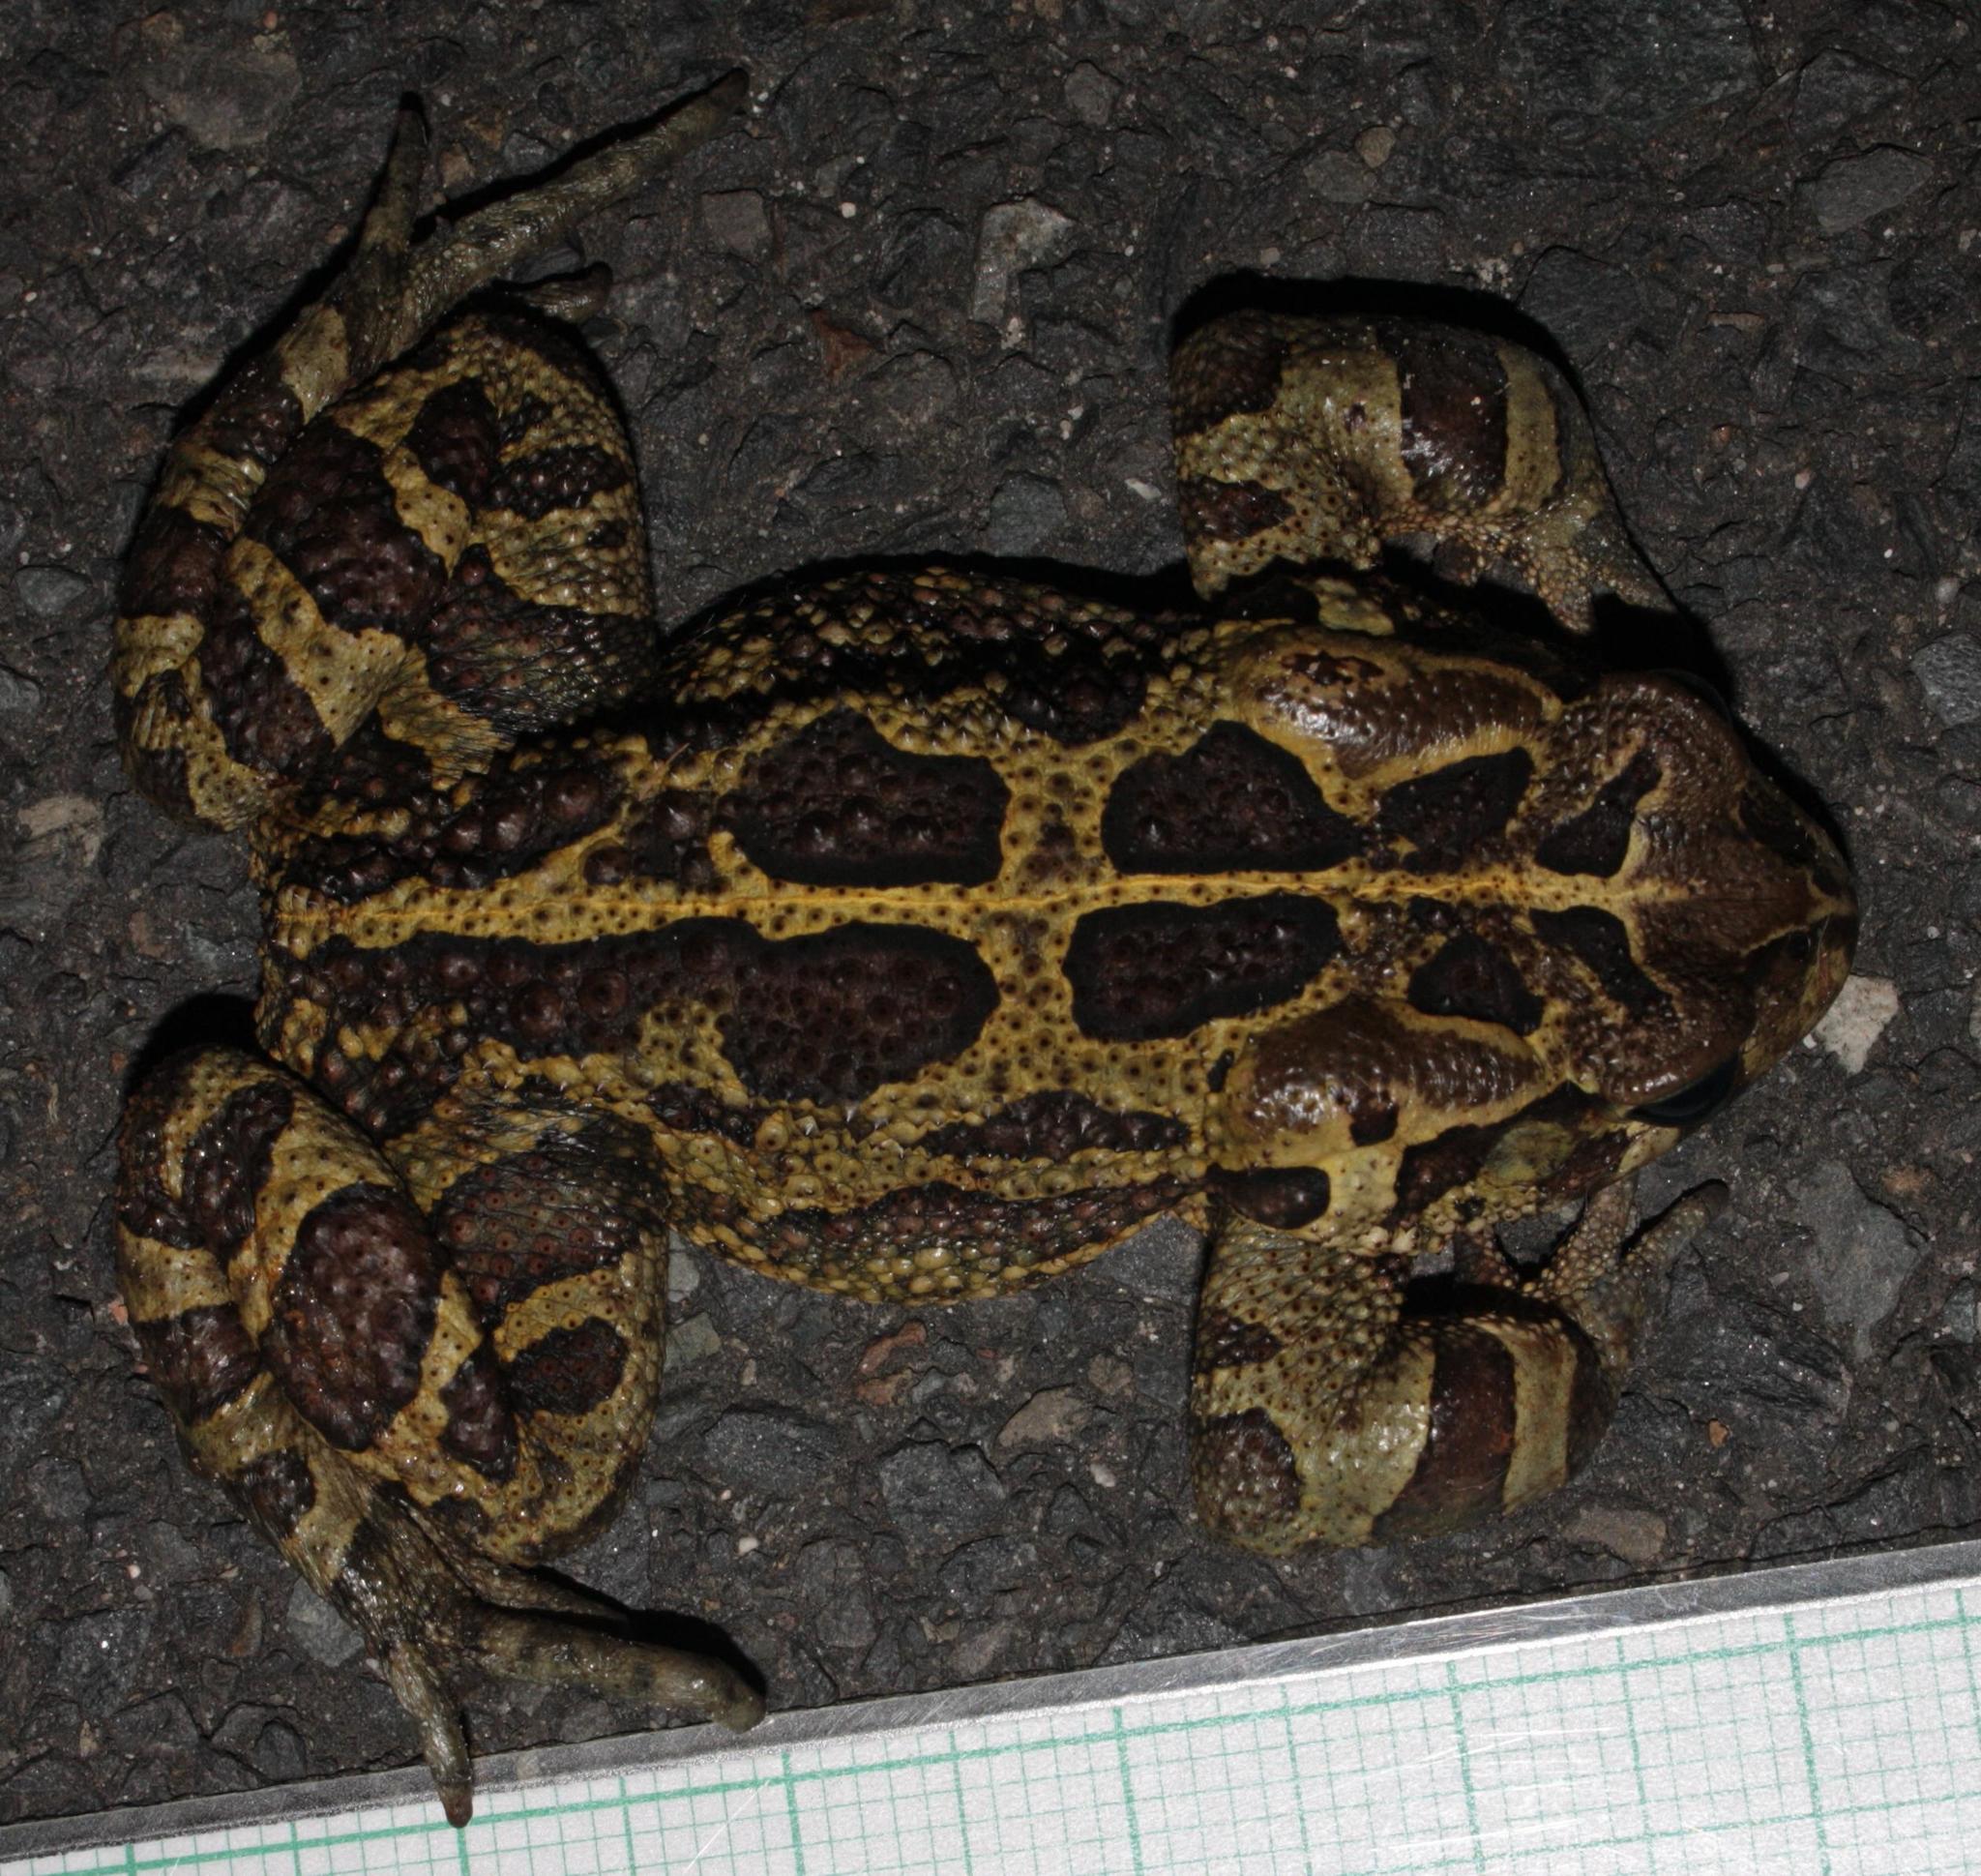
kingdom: Animalia
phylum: Chordata
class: Amphibia
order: Anura
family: Bufonidae
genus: Sclerophrys
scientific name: Sclerophrys pantherina
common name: Panther toad
